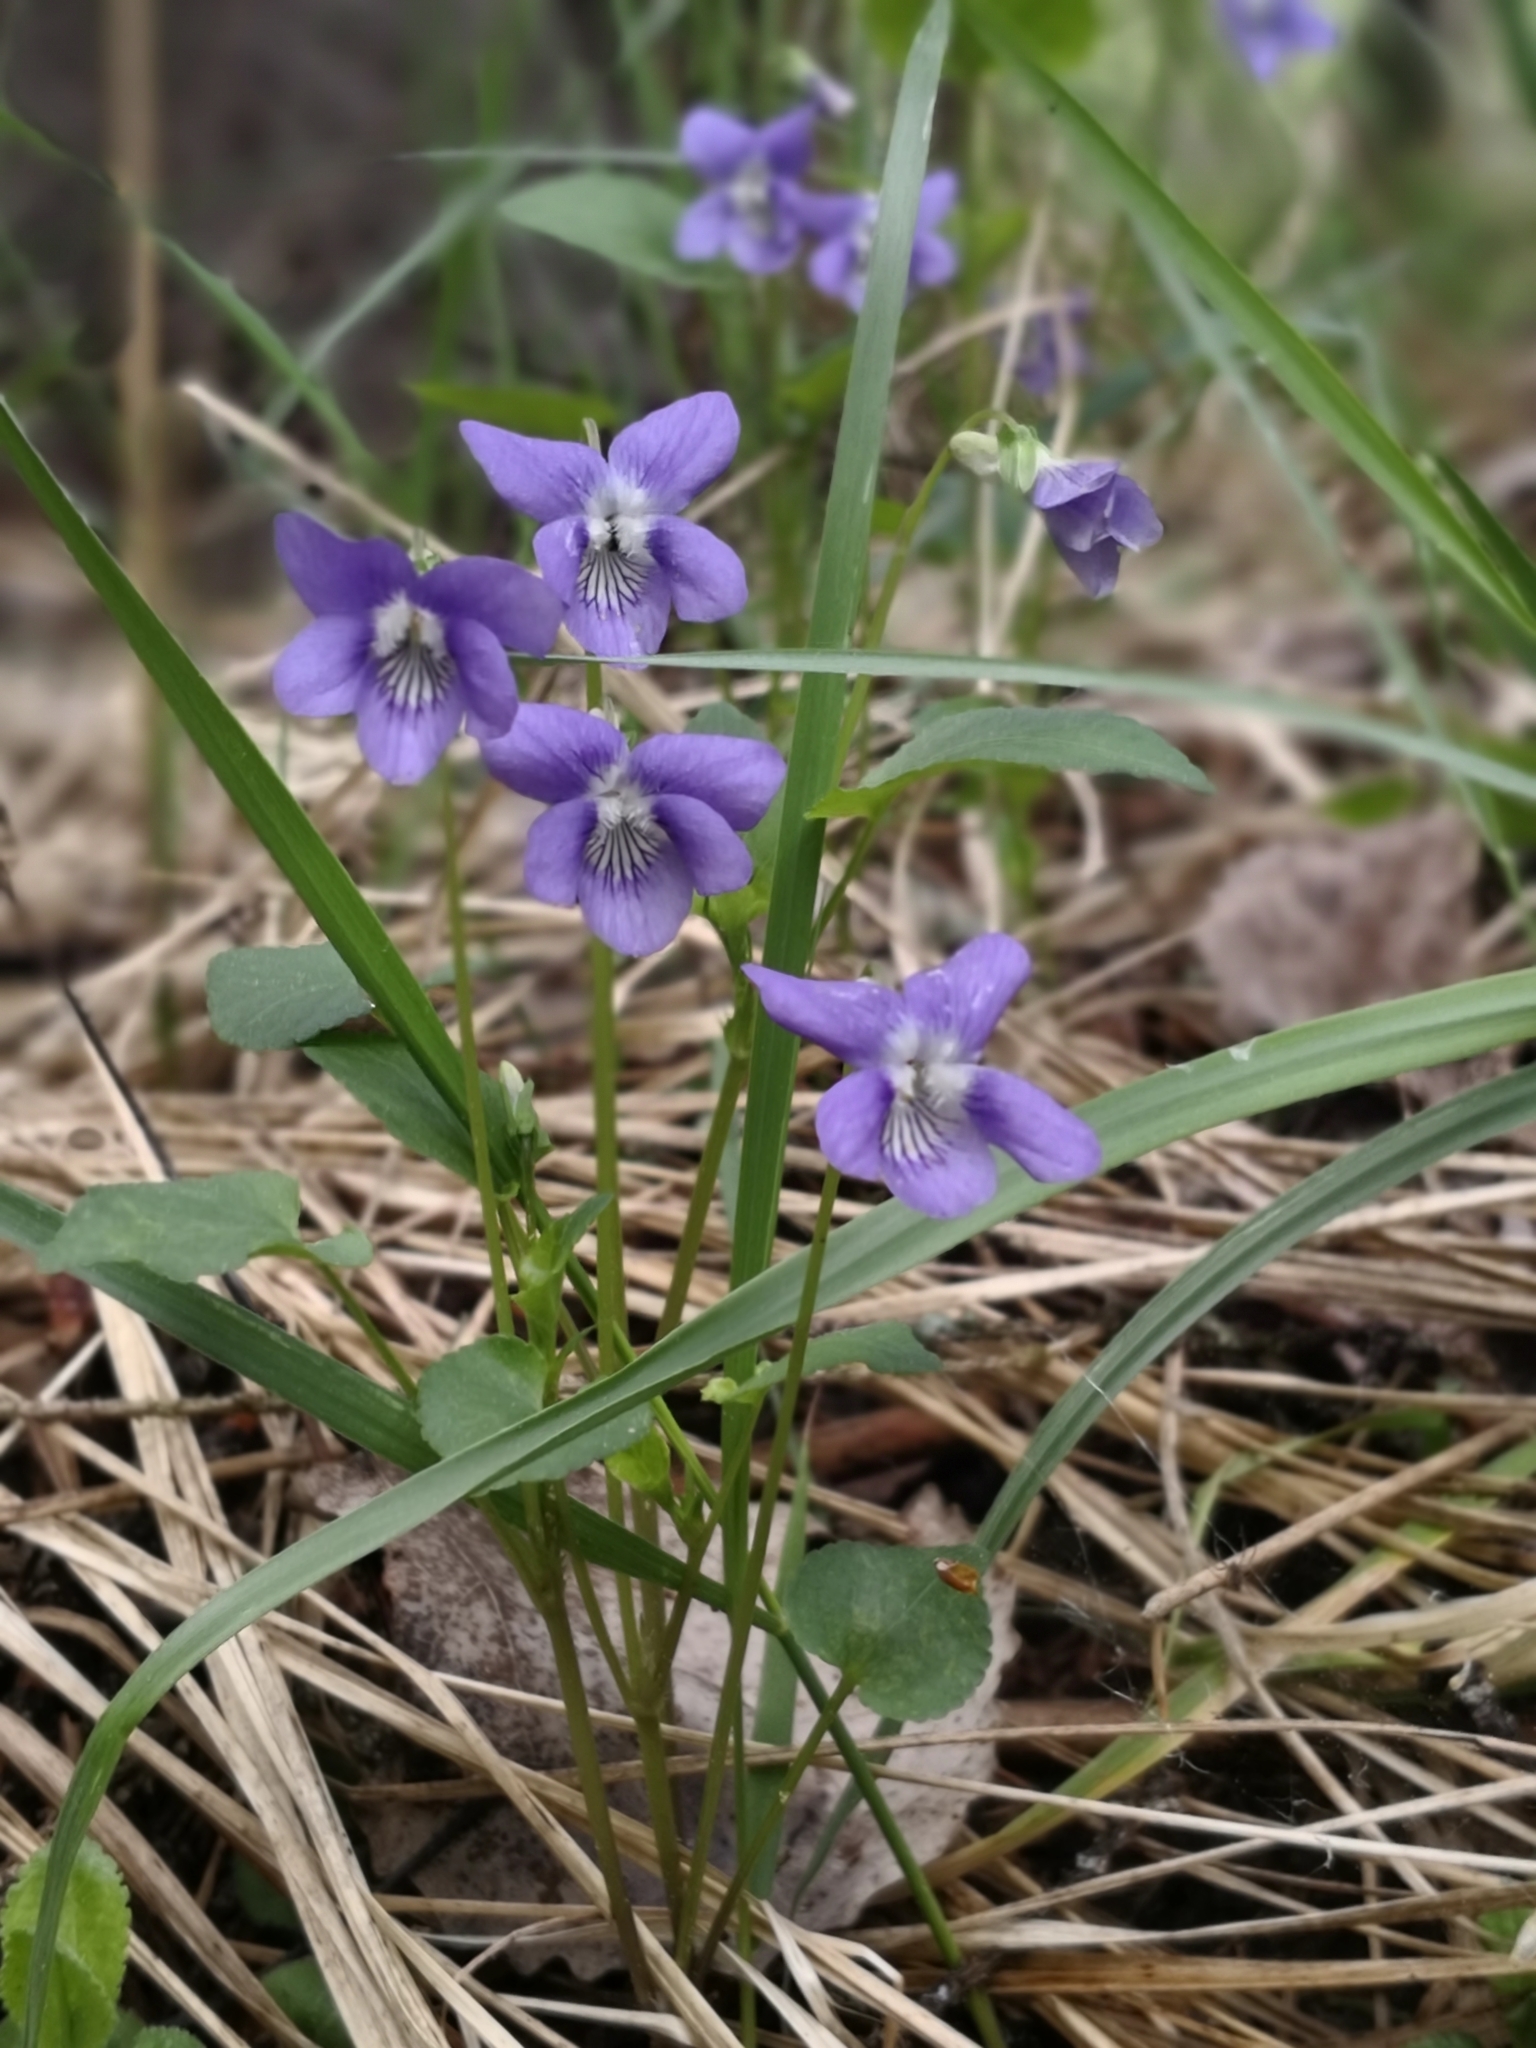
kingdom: Plantae
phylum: Tracheophyta
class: Magnoliopsida
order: Malpighiales
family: Violaceae
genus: Viola
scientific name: Viola canina
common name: Heath dog-violet
